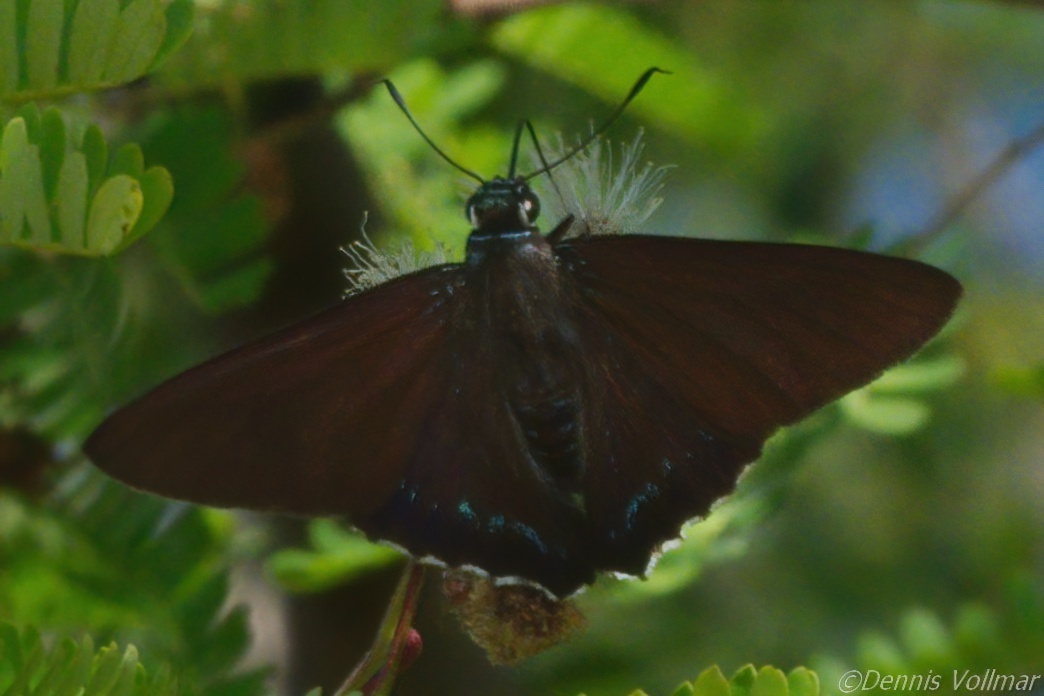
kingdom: Animalia
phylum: Arthropoda
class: Insecta
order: Lepidoptera
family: Hesperiidae
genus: Phocides
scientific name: Phocides pigmalion
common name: Mangrove skipper
